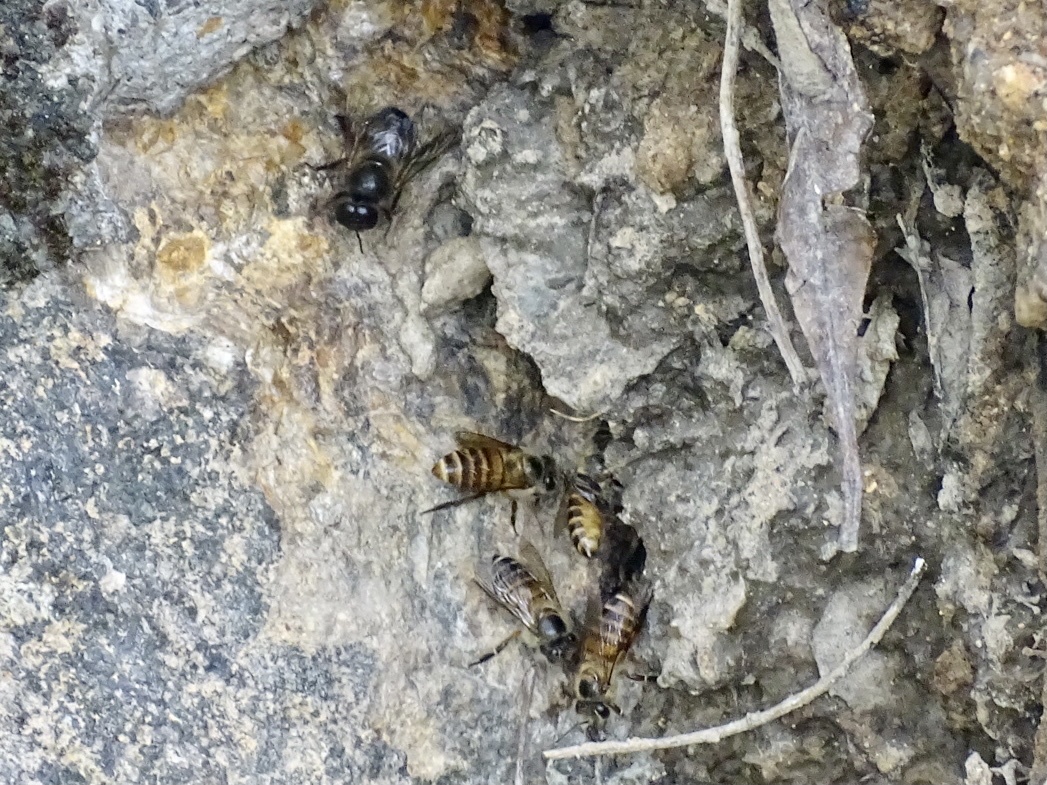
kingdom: Animalia
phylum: Arthropoda
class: Insecta
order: Hymenoptera
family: Apidae
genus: Apis
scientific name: Apis cerana
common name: Honey bee
